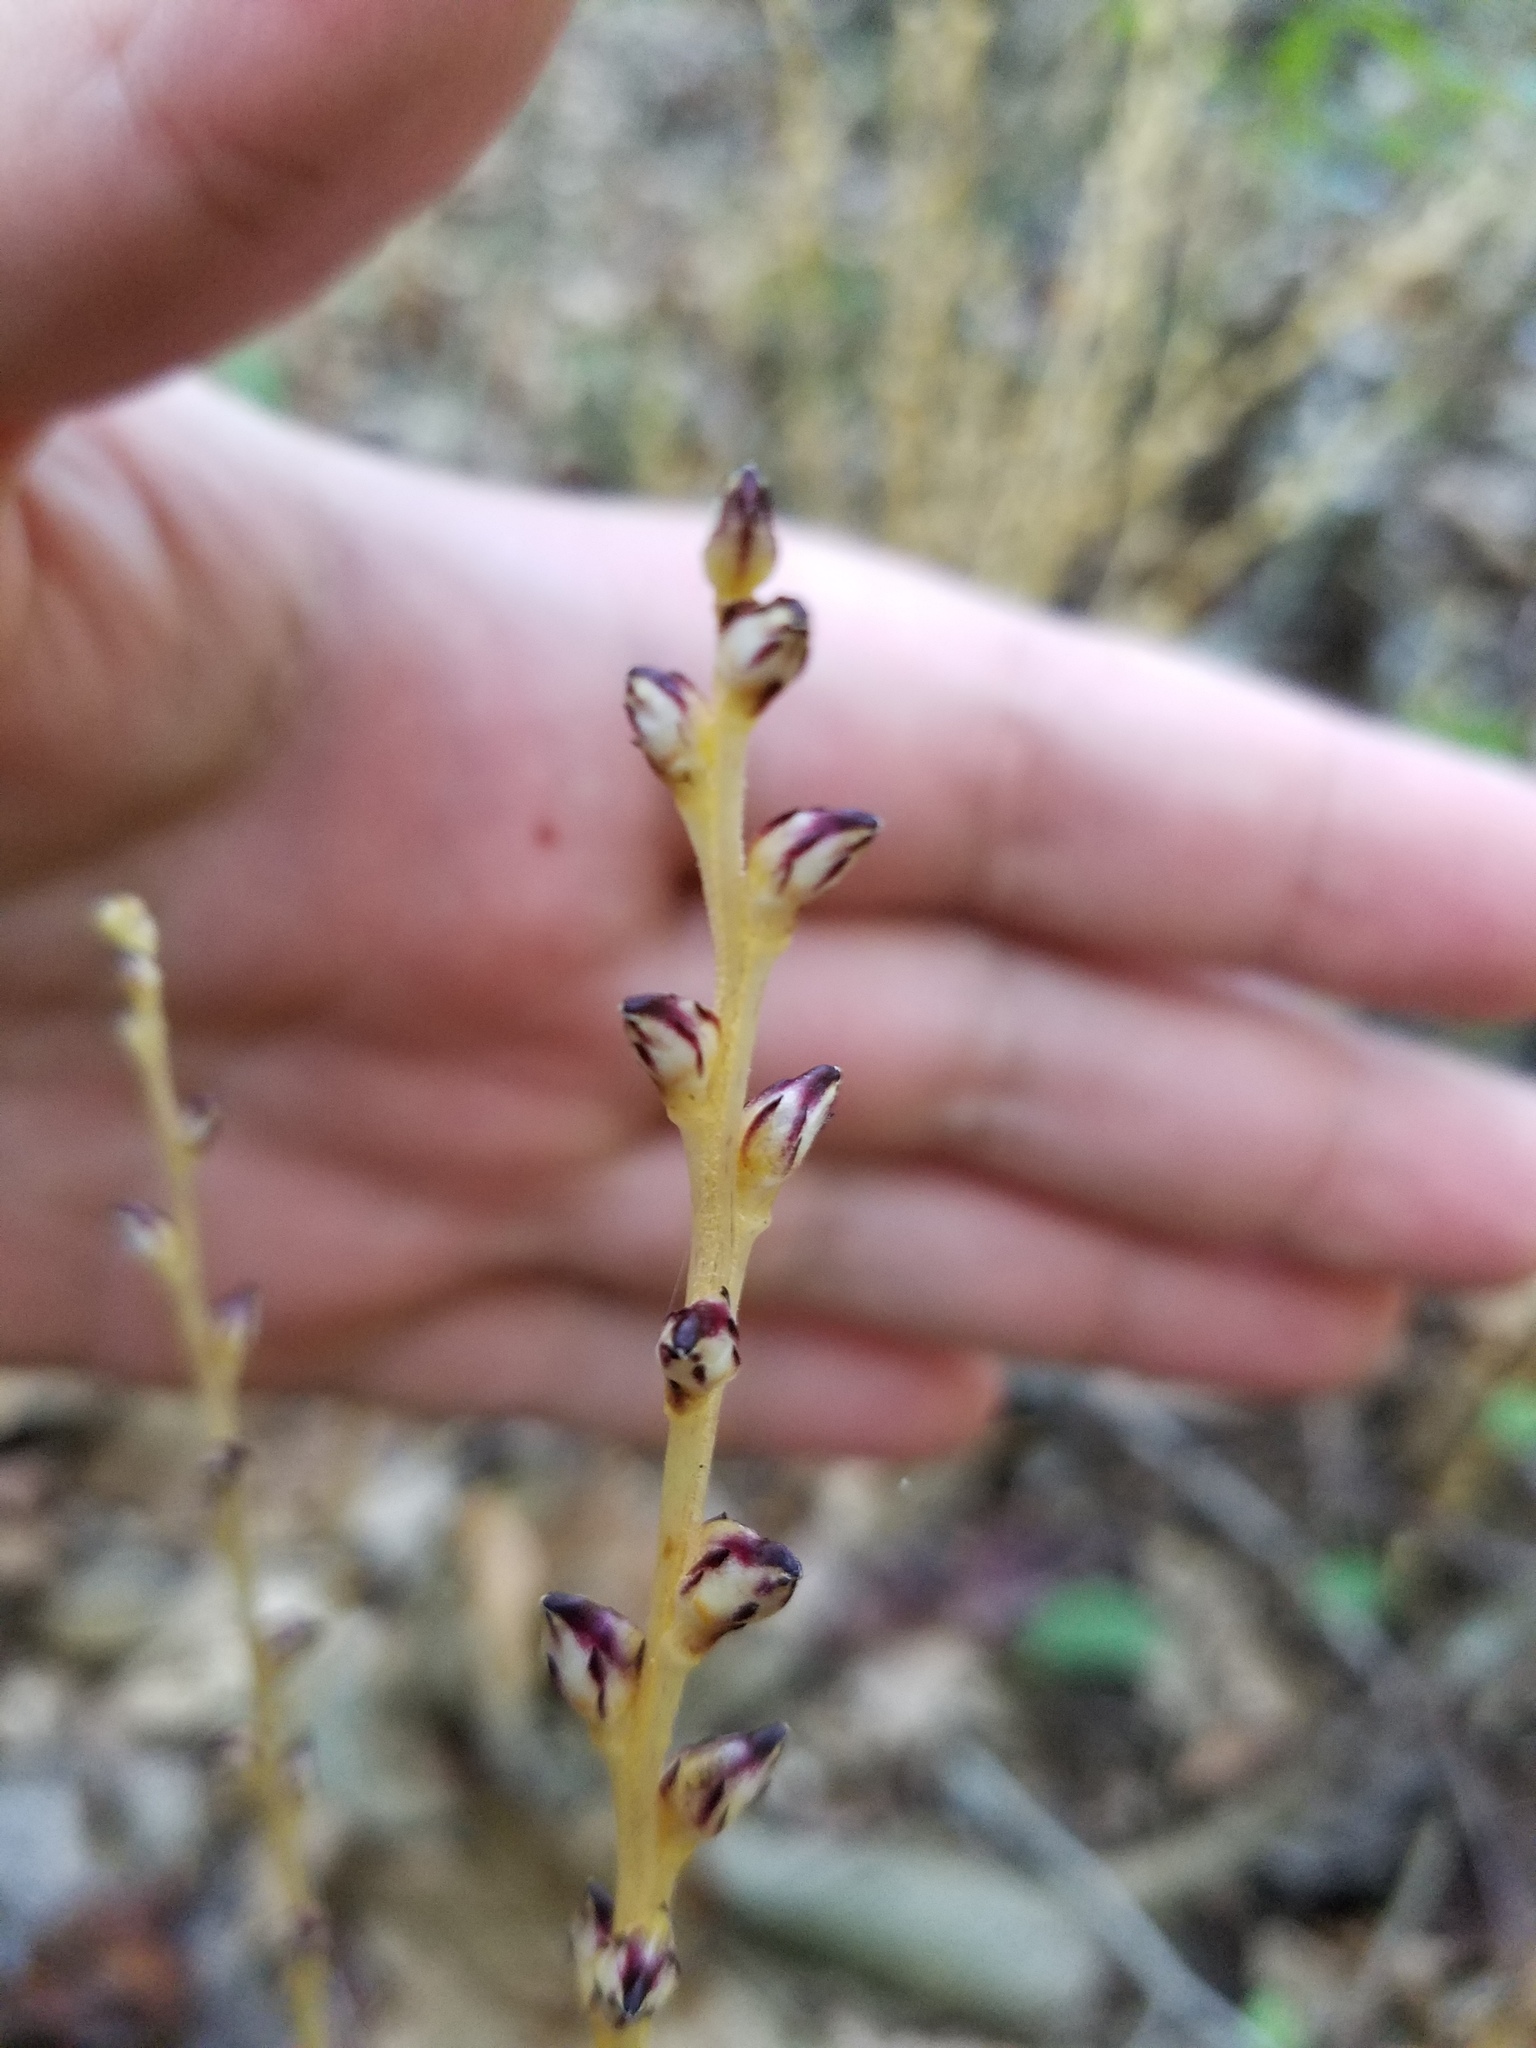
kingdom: Plantae
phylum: Tracheophyta
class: Magnoliopsida
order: Lamiales
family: Orobanchaceae
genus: Epifagus
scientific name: Epifagus virginiana
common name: Beechdrops
